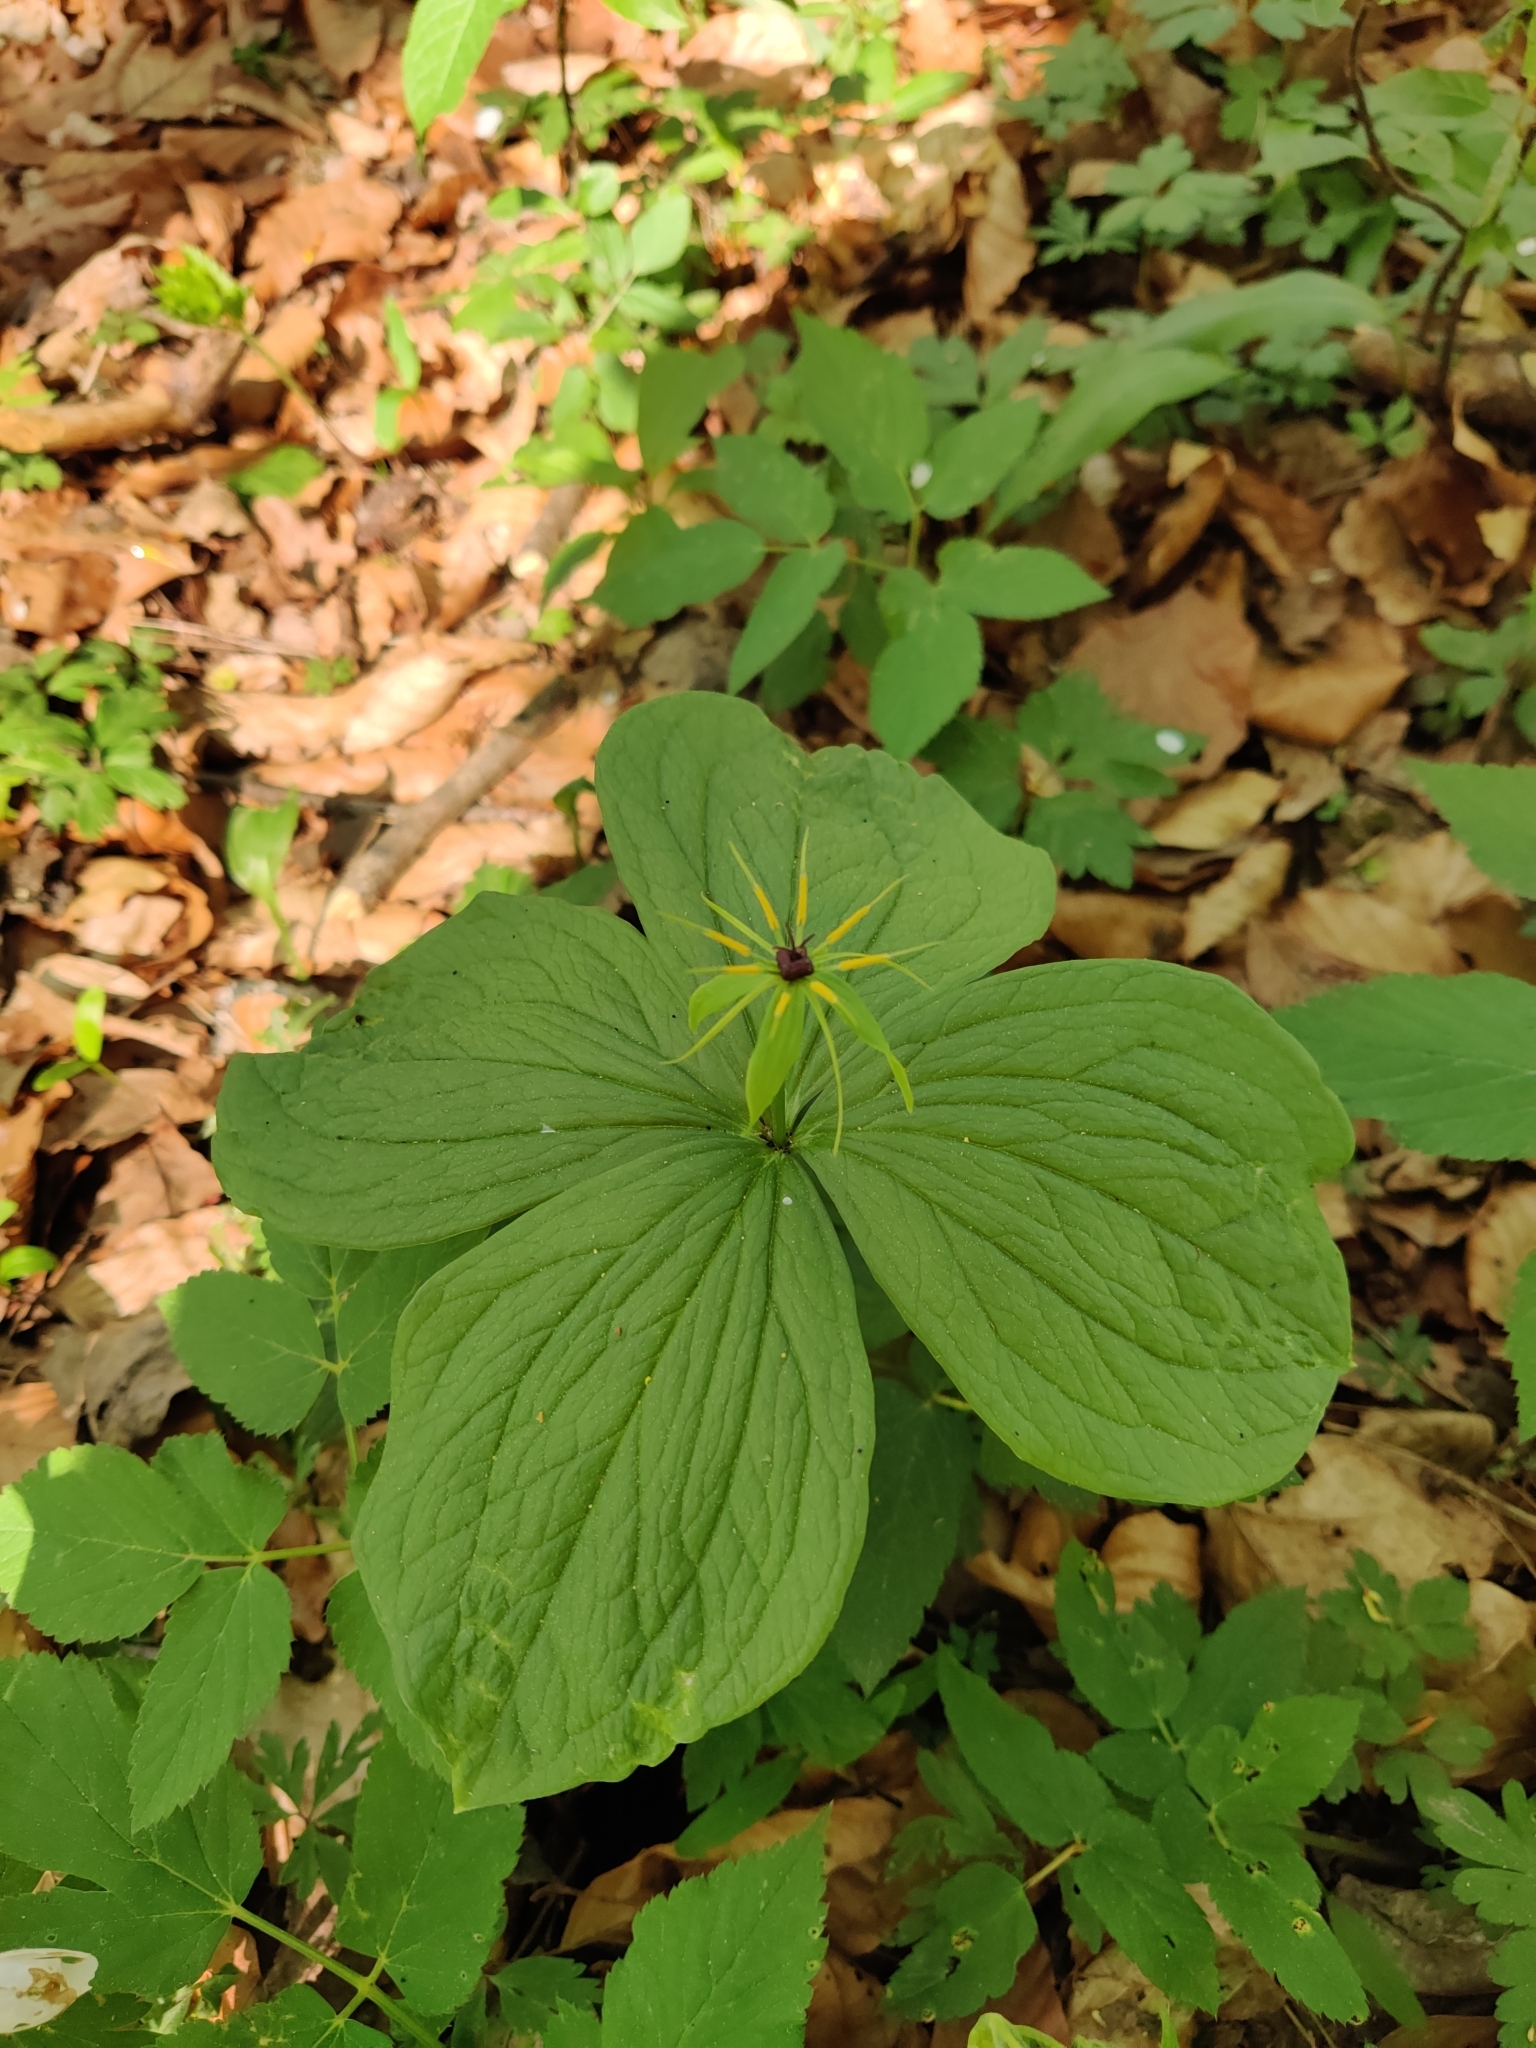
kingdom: Plantae
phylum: Tracheophyta
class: Liliopsida
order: Liliales
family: Melanthiaceae
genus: Paris
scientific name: Paris quadrifolia
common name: Herb-paris
